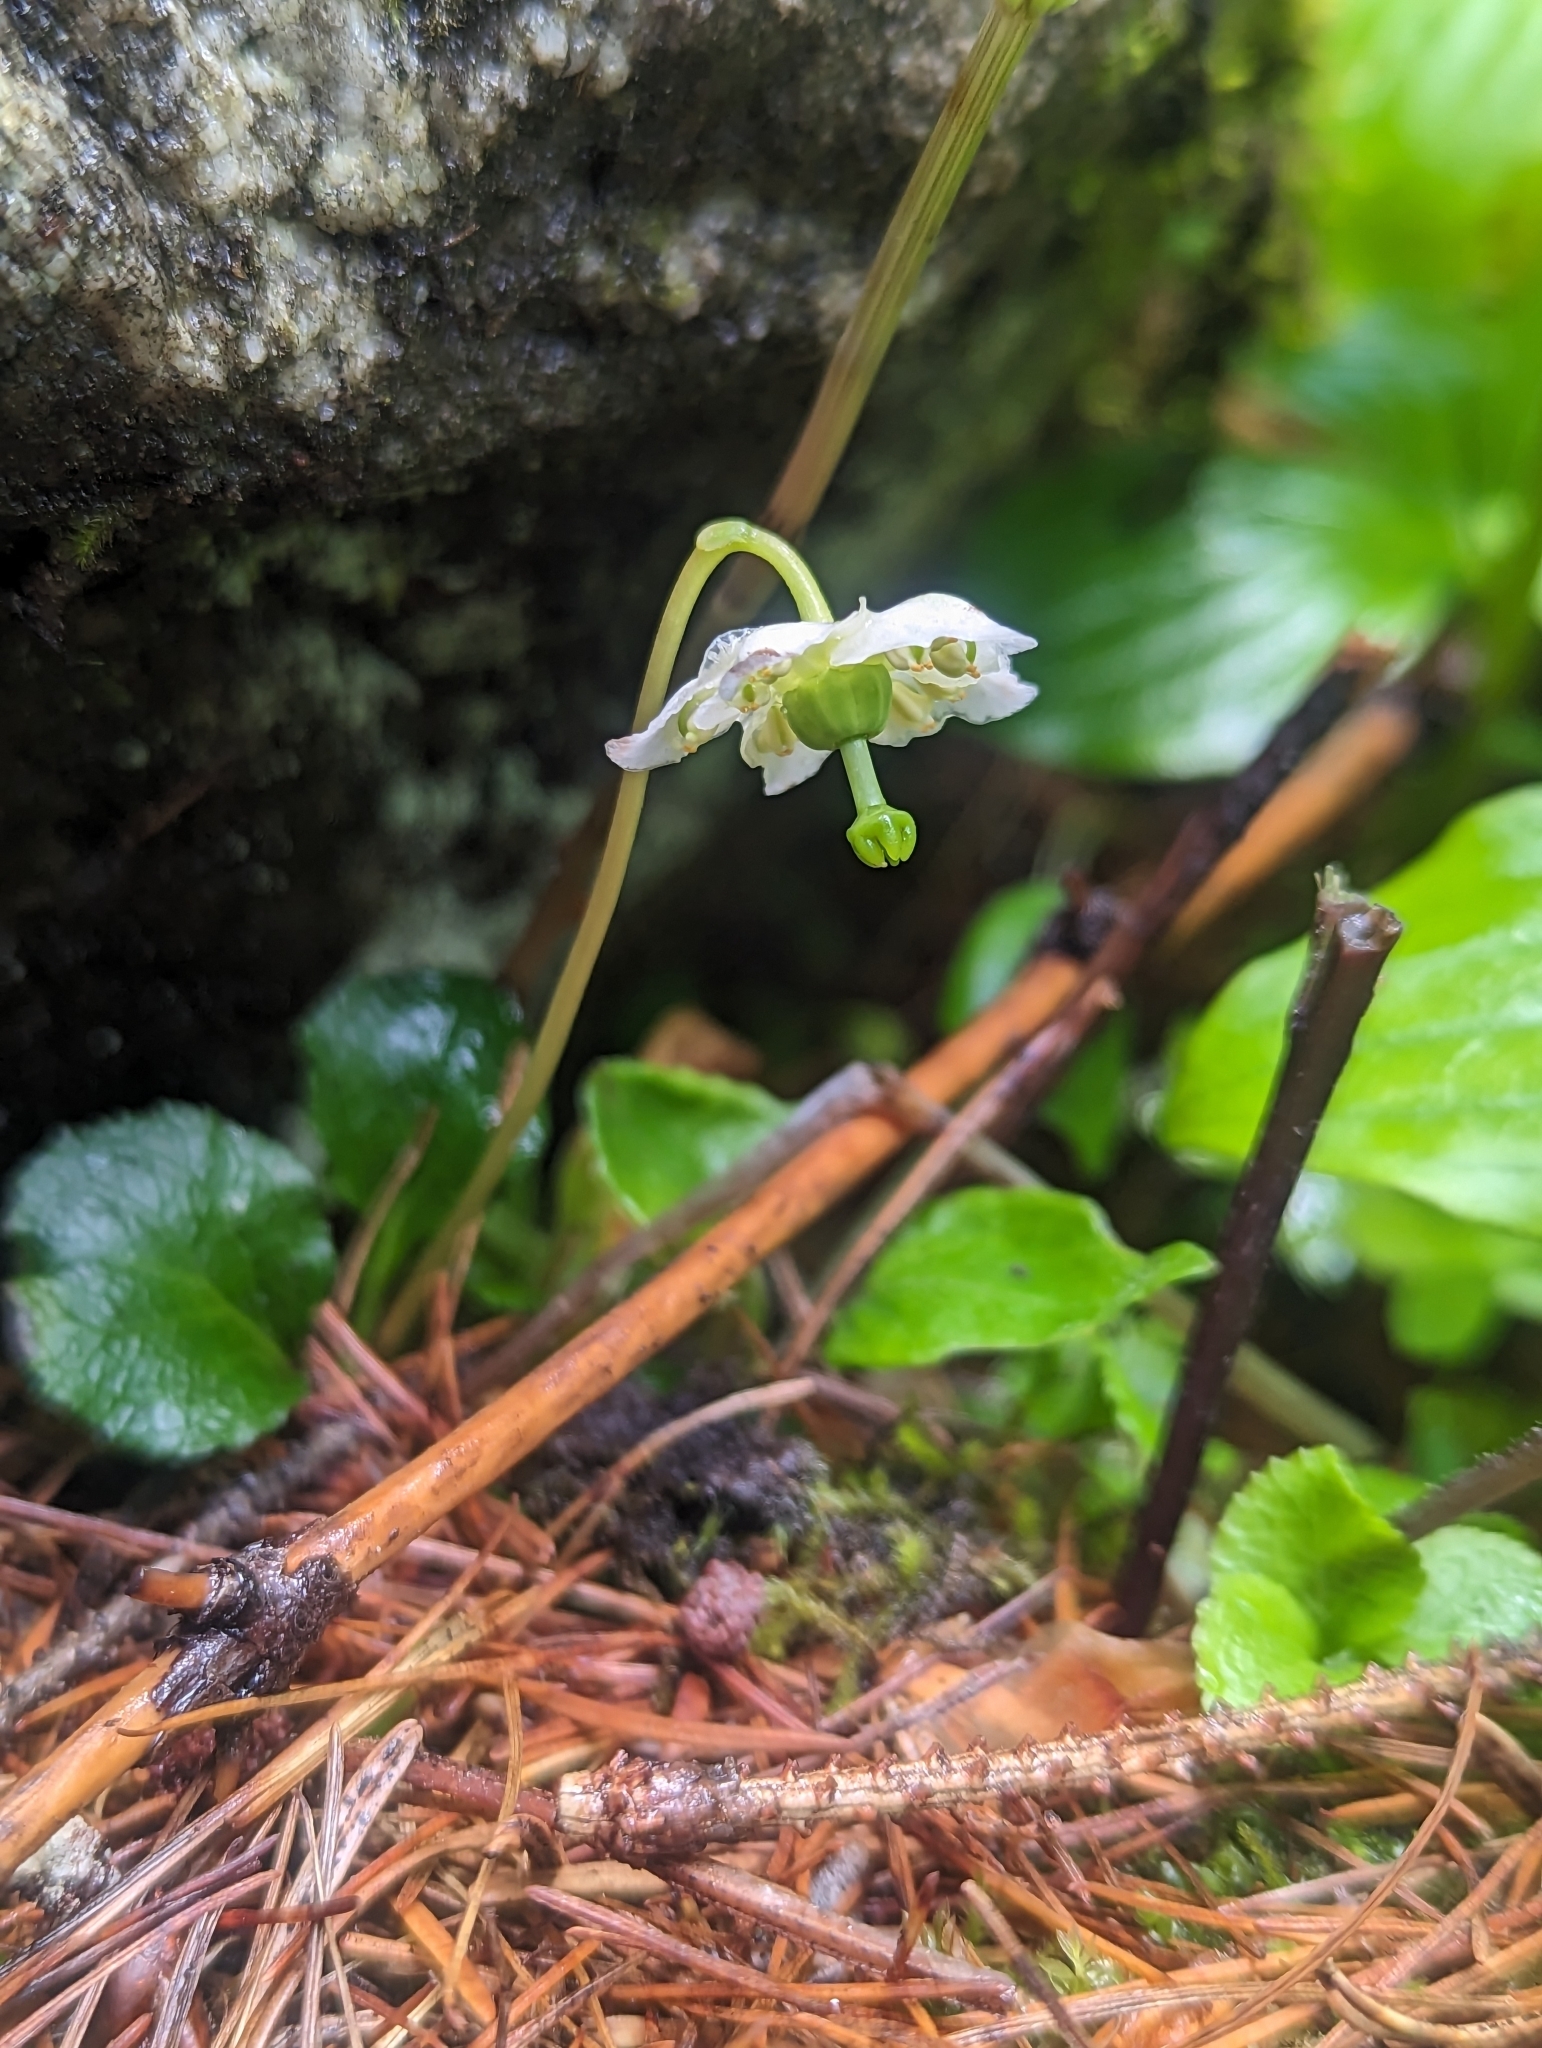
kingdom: Plantae
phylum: Tracheophyta
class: Magnoliopsida
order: Ericales
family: Ericaceae
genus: Moneses
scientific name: Moneses uniflora
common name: One-flowered wintergreen
